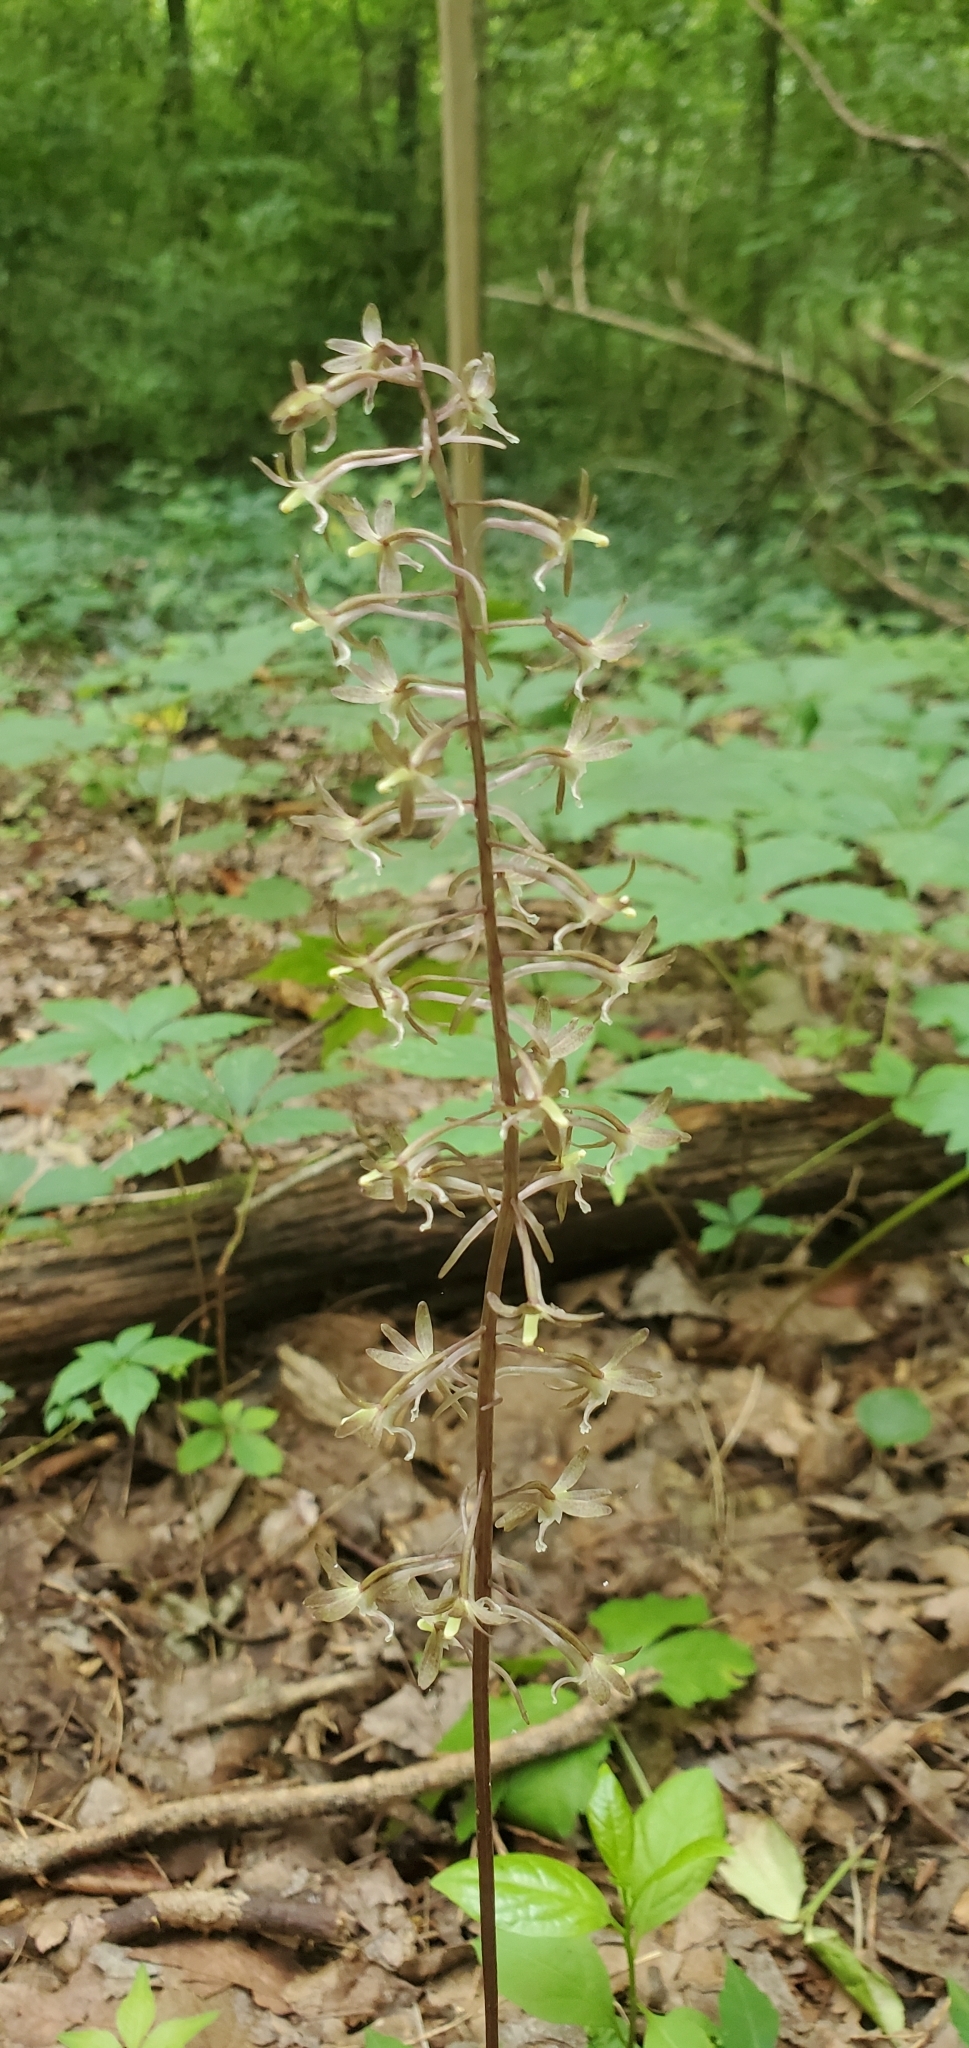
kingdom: Plantae
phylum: Tracheophyta
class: Liliopsida
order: Asparagales
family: Orchidaceae
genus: Tipularia
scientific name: Tipularia discolor
